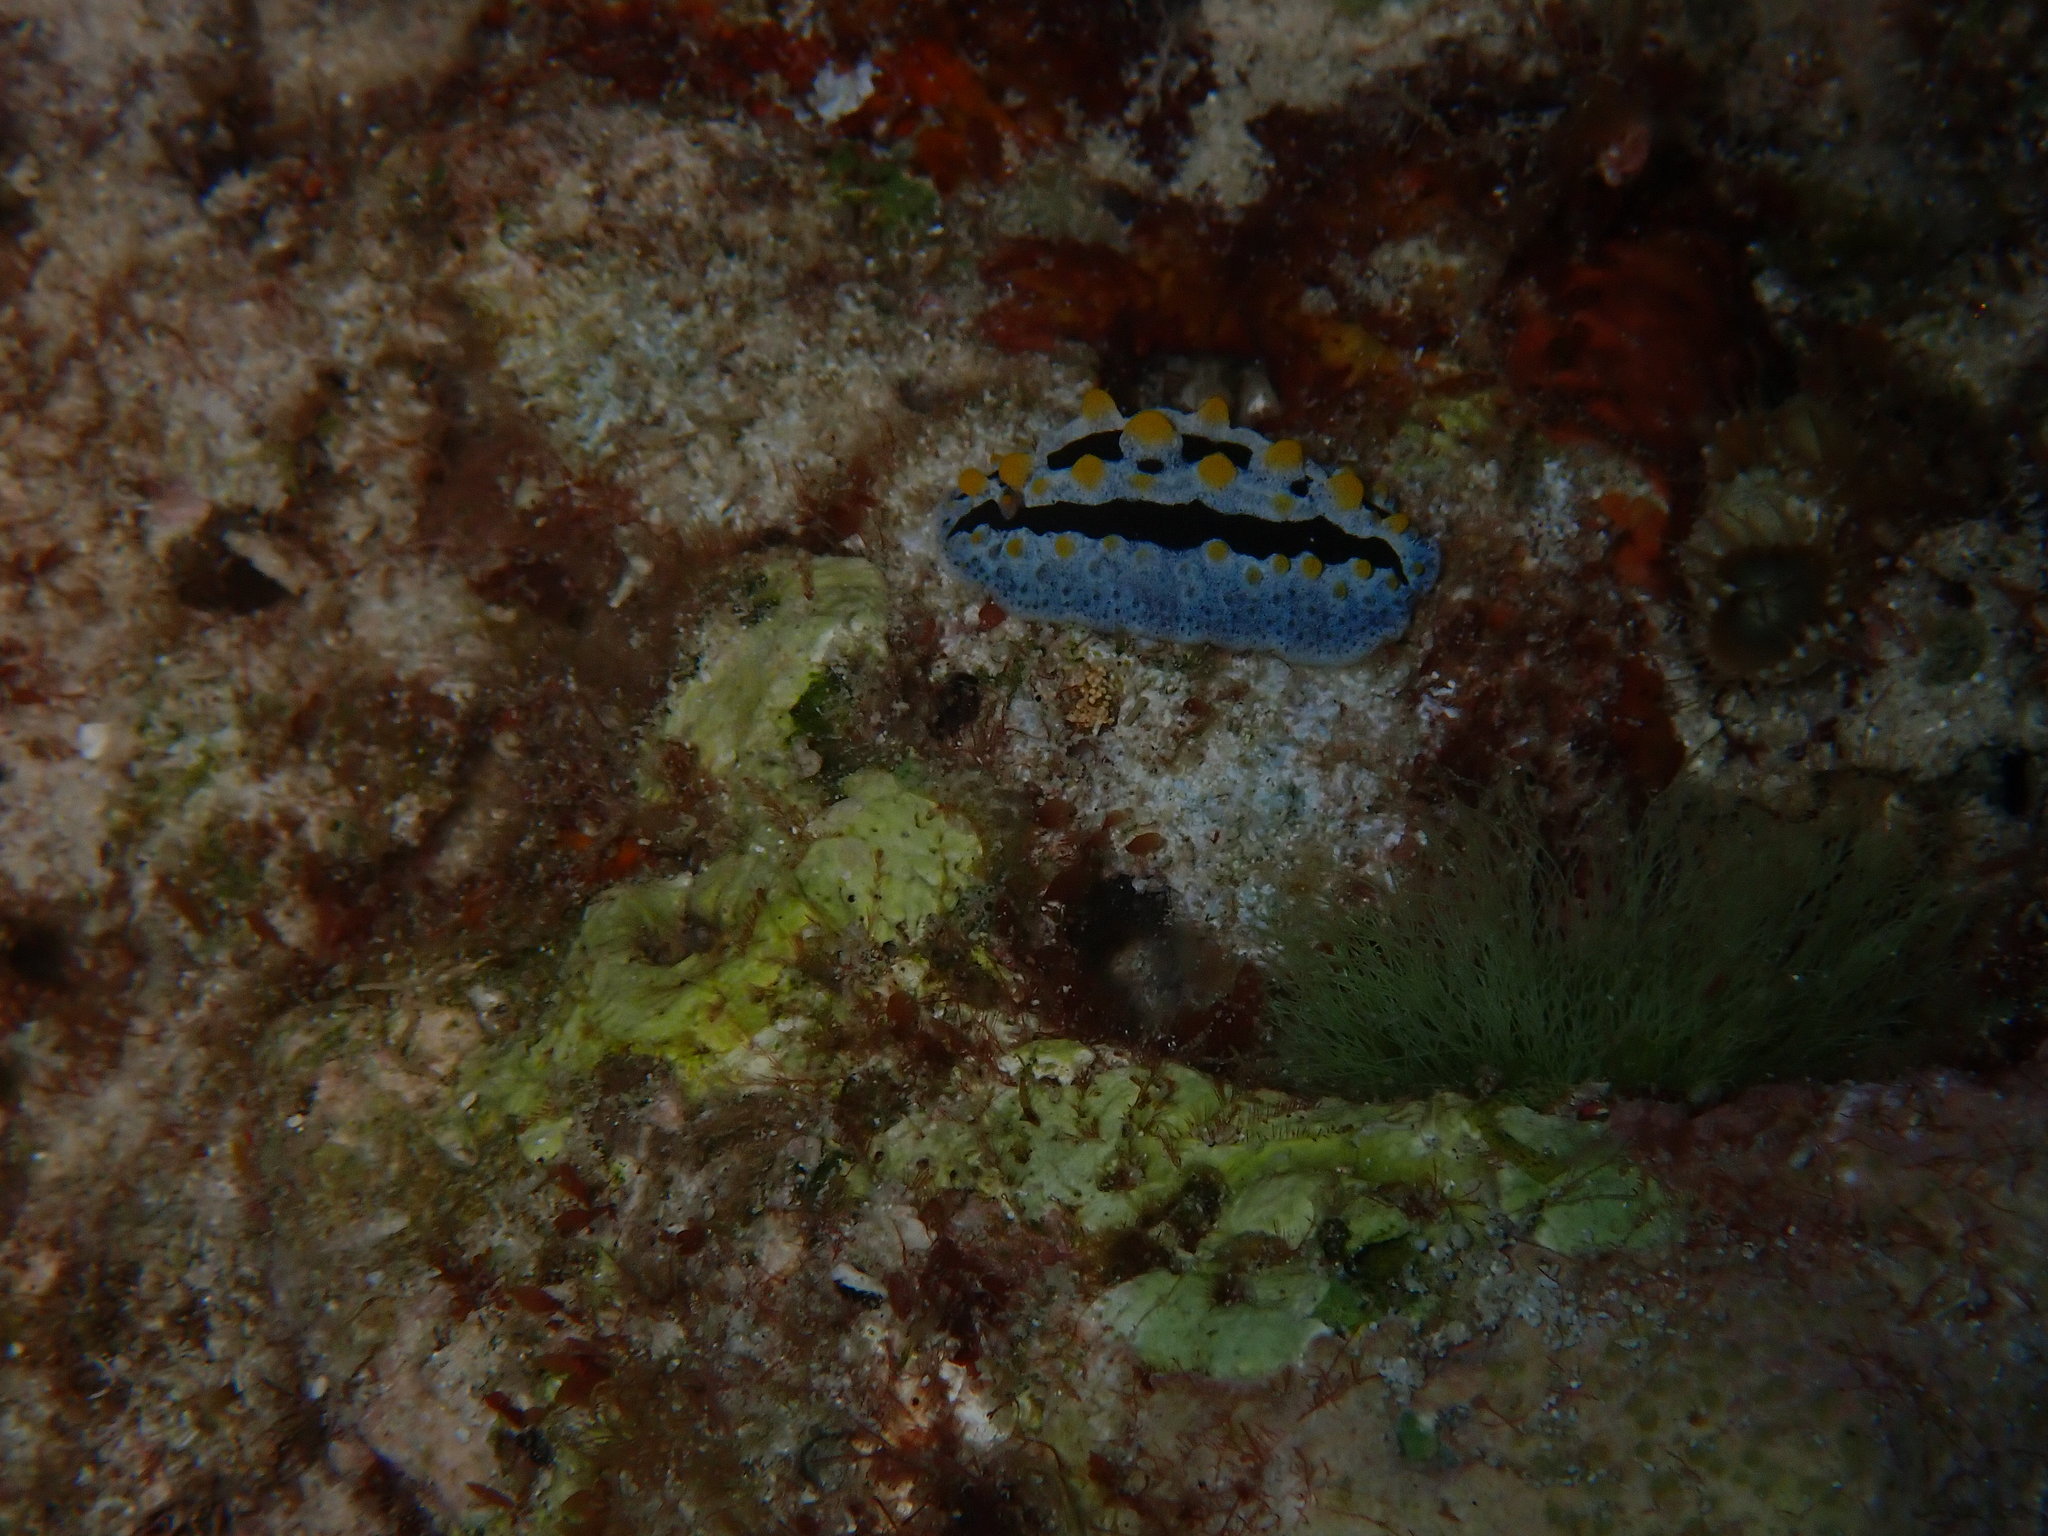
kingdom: Animalia
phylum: Mollusca
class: Gastropoda
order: Nudibranchia
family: Phyllidiidae
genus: Phyllidia
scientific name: Phyllidia coelestis
